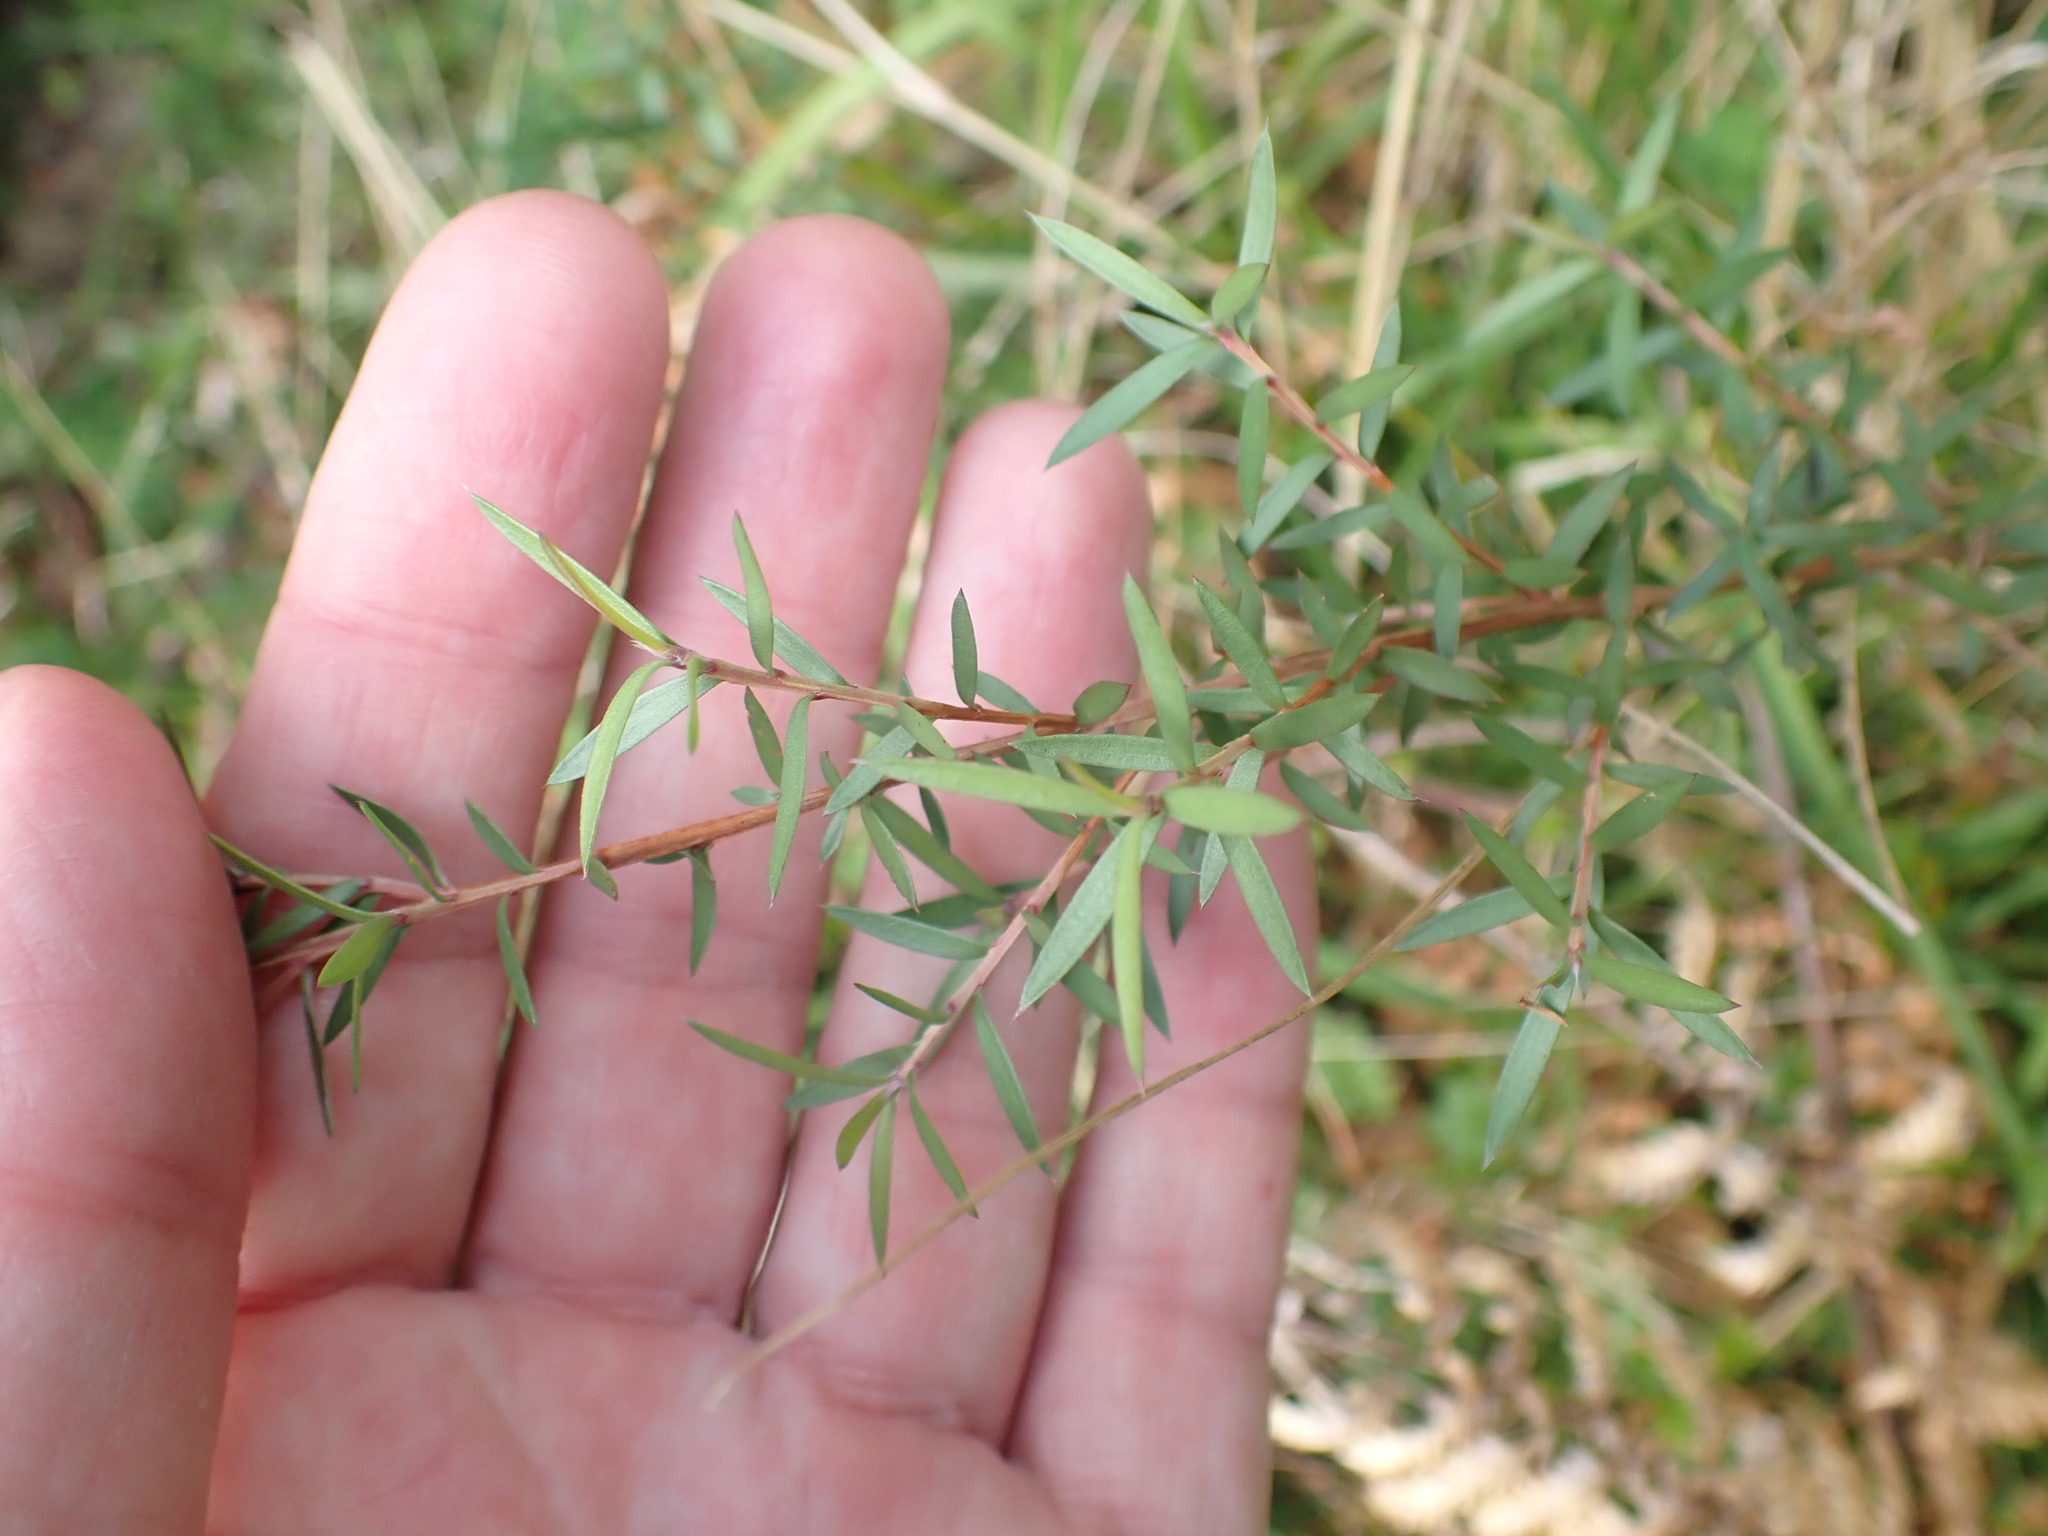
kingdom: Plantae
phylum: Tracheophyta
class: Magnoliopsida
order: Ericales
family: Ericaceae
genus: Leucopogon
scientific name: Leucopogon fasciculatus
